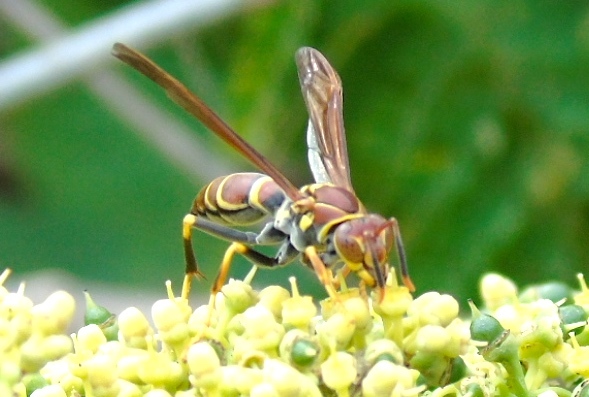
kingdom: Animalia
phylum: Arthropoda
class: Insecta
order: Hymenoptera
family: Eumenidae
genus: Polistes
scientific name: Polistes instabilis
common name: Unstable paper wasp
